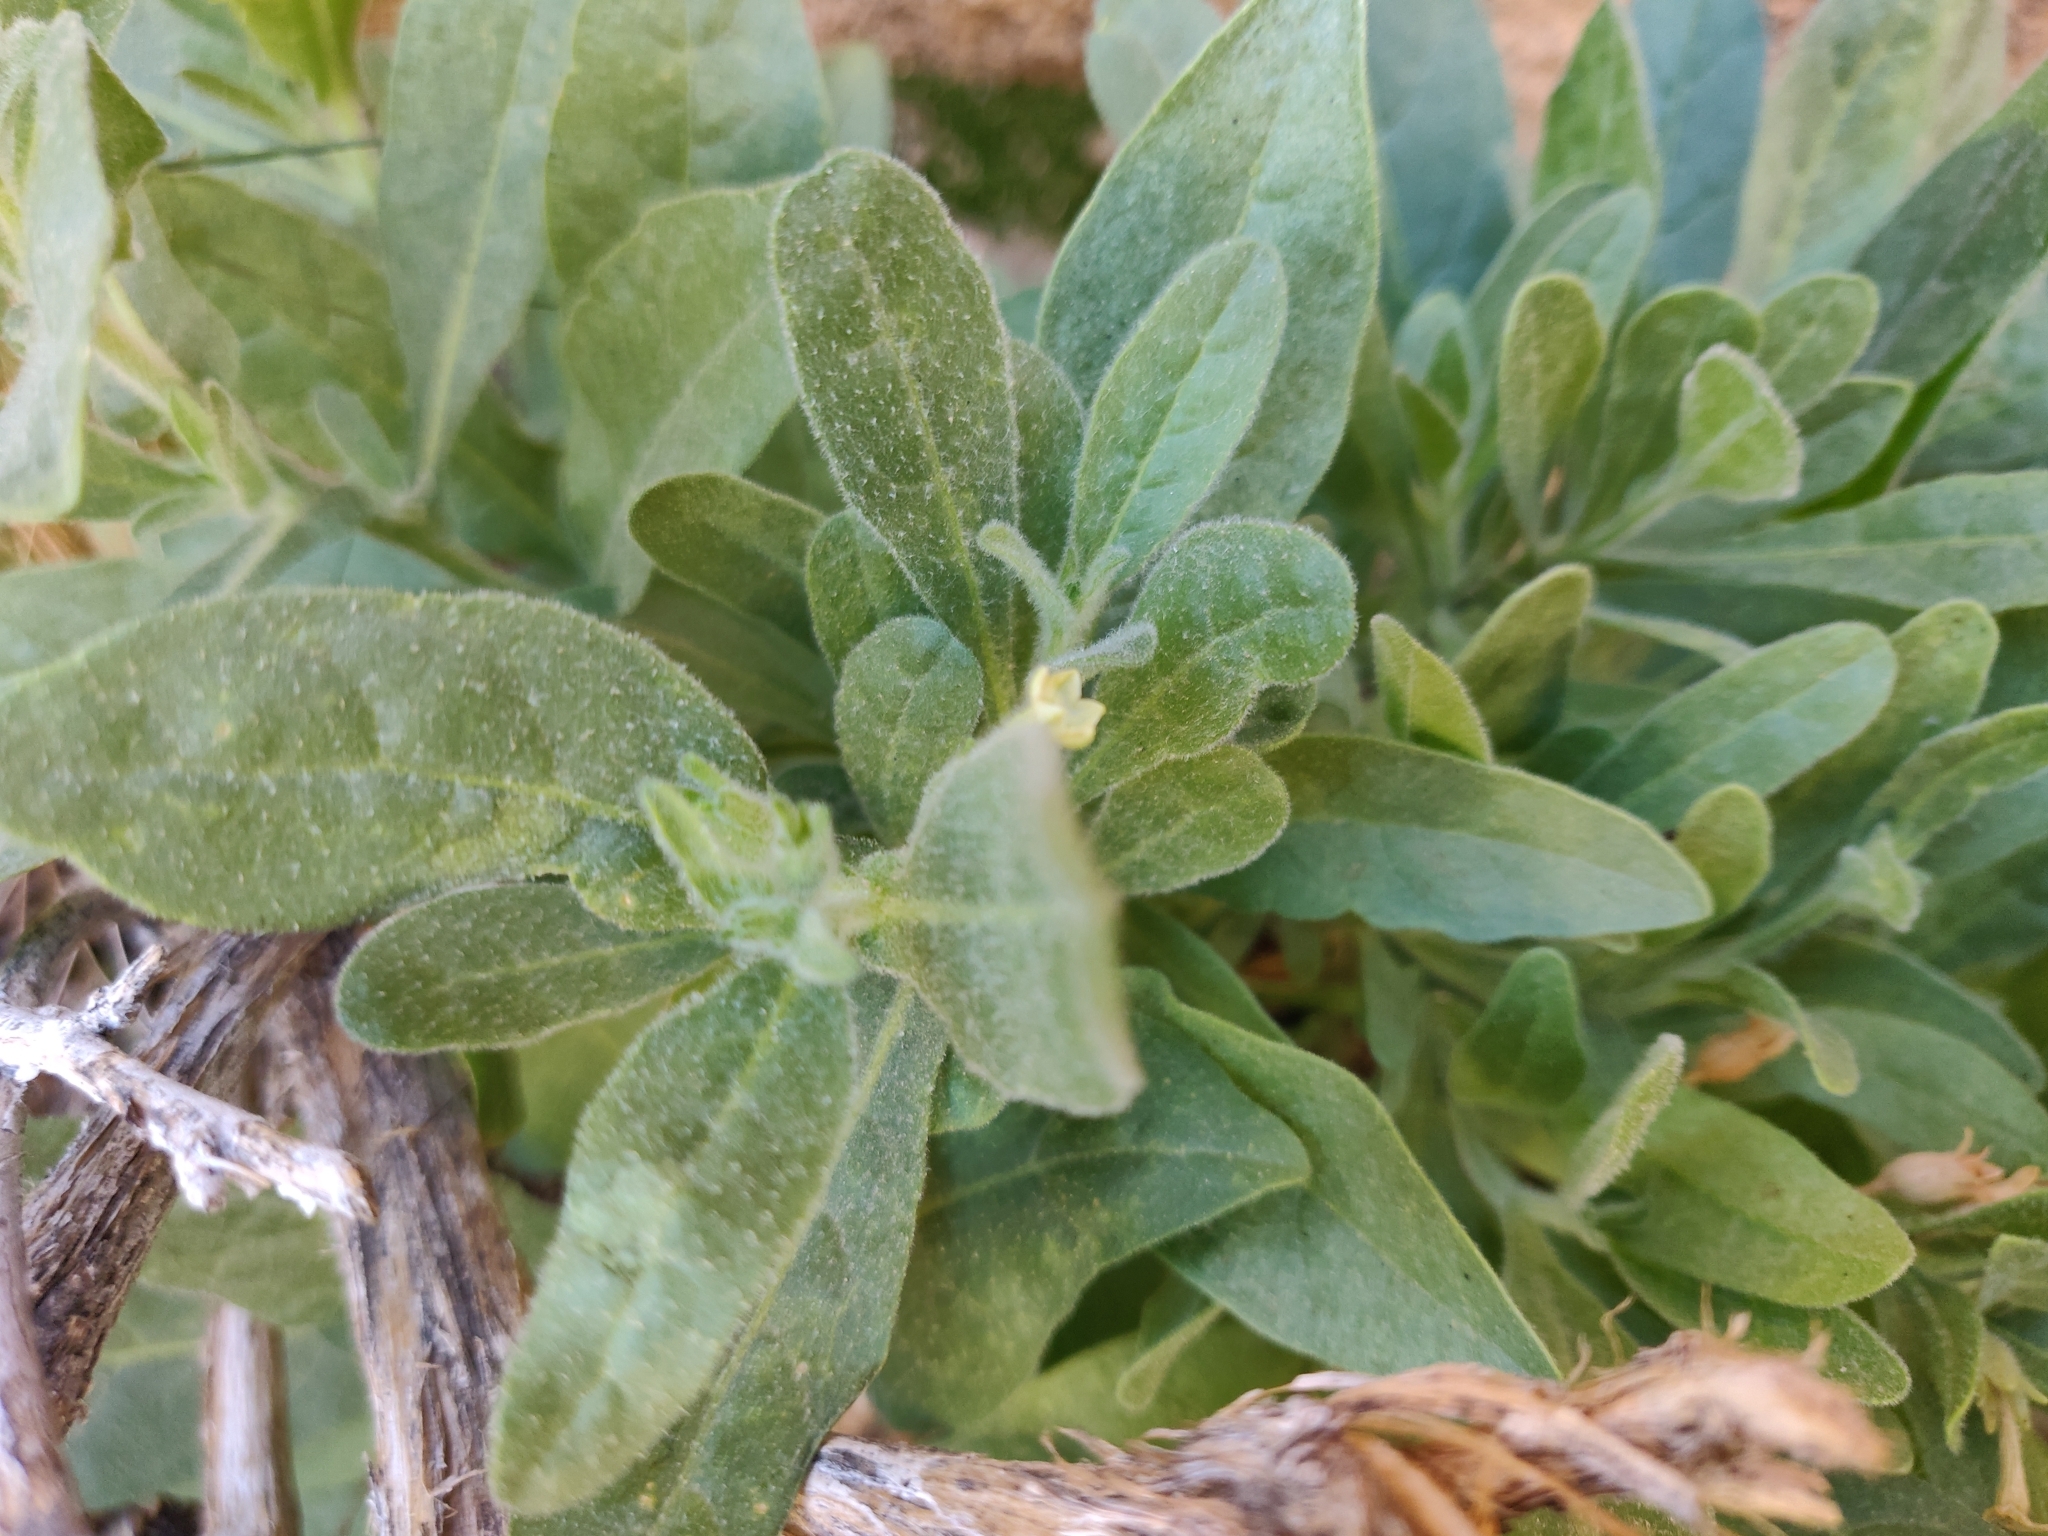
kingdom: Plantae
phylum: Tracheophyta
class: Magnoliopsida
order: Solanales
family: Solanaceae
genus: Nicotiana
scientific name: Nicotiana obtusifolia
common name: Desert tobacco
